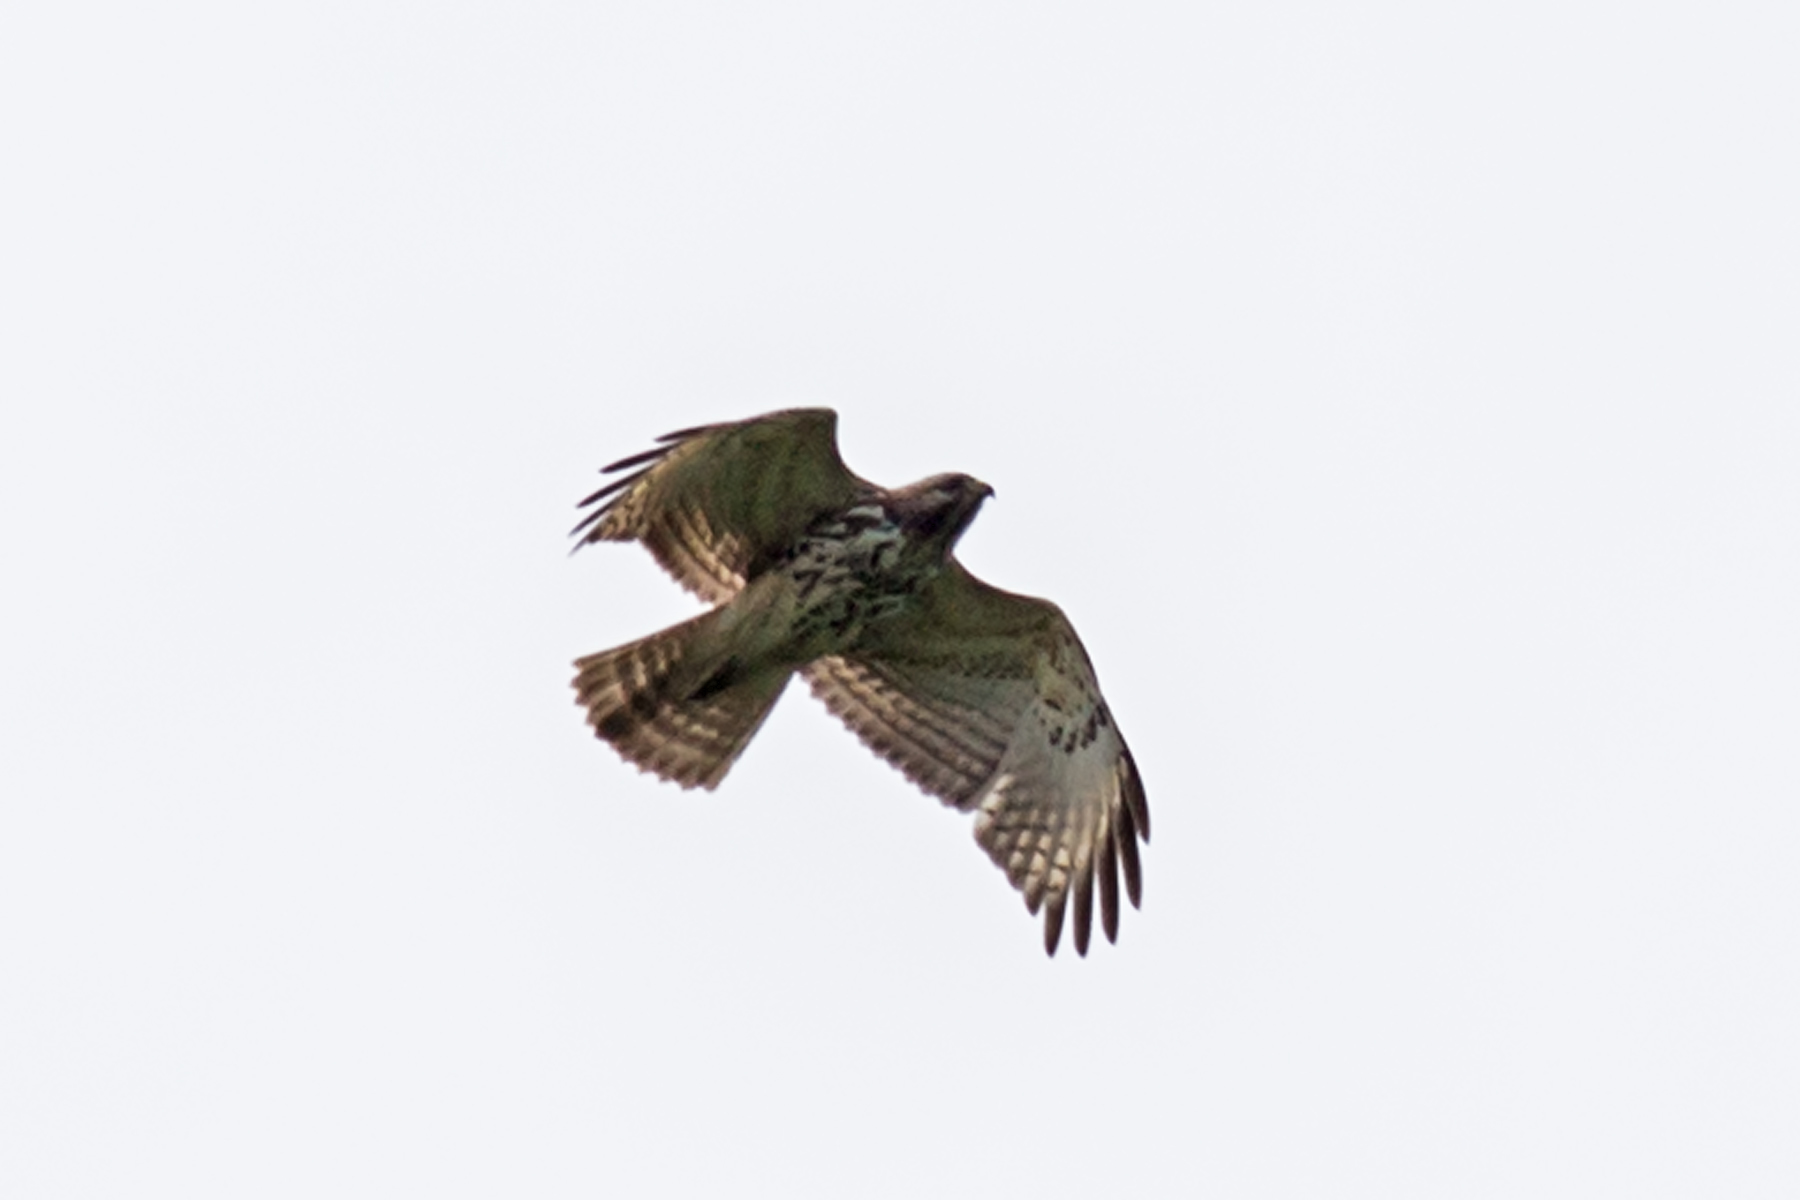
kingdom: Animalia
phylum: Chordata
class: Aves
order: Accipitriformes
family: Accipitridae
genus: Buteo
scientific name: Buteo lineatus
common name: Red-shouldered hawk
